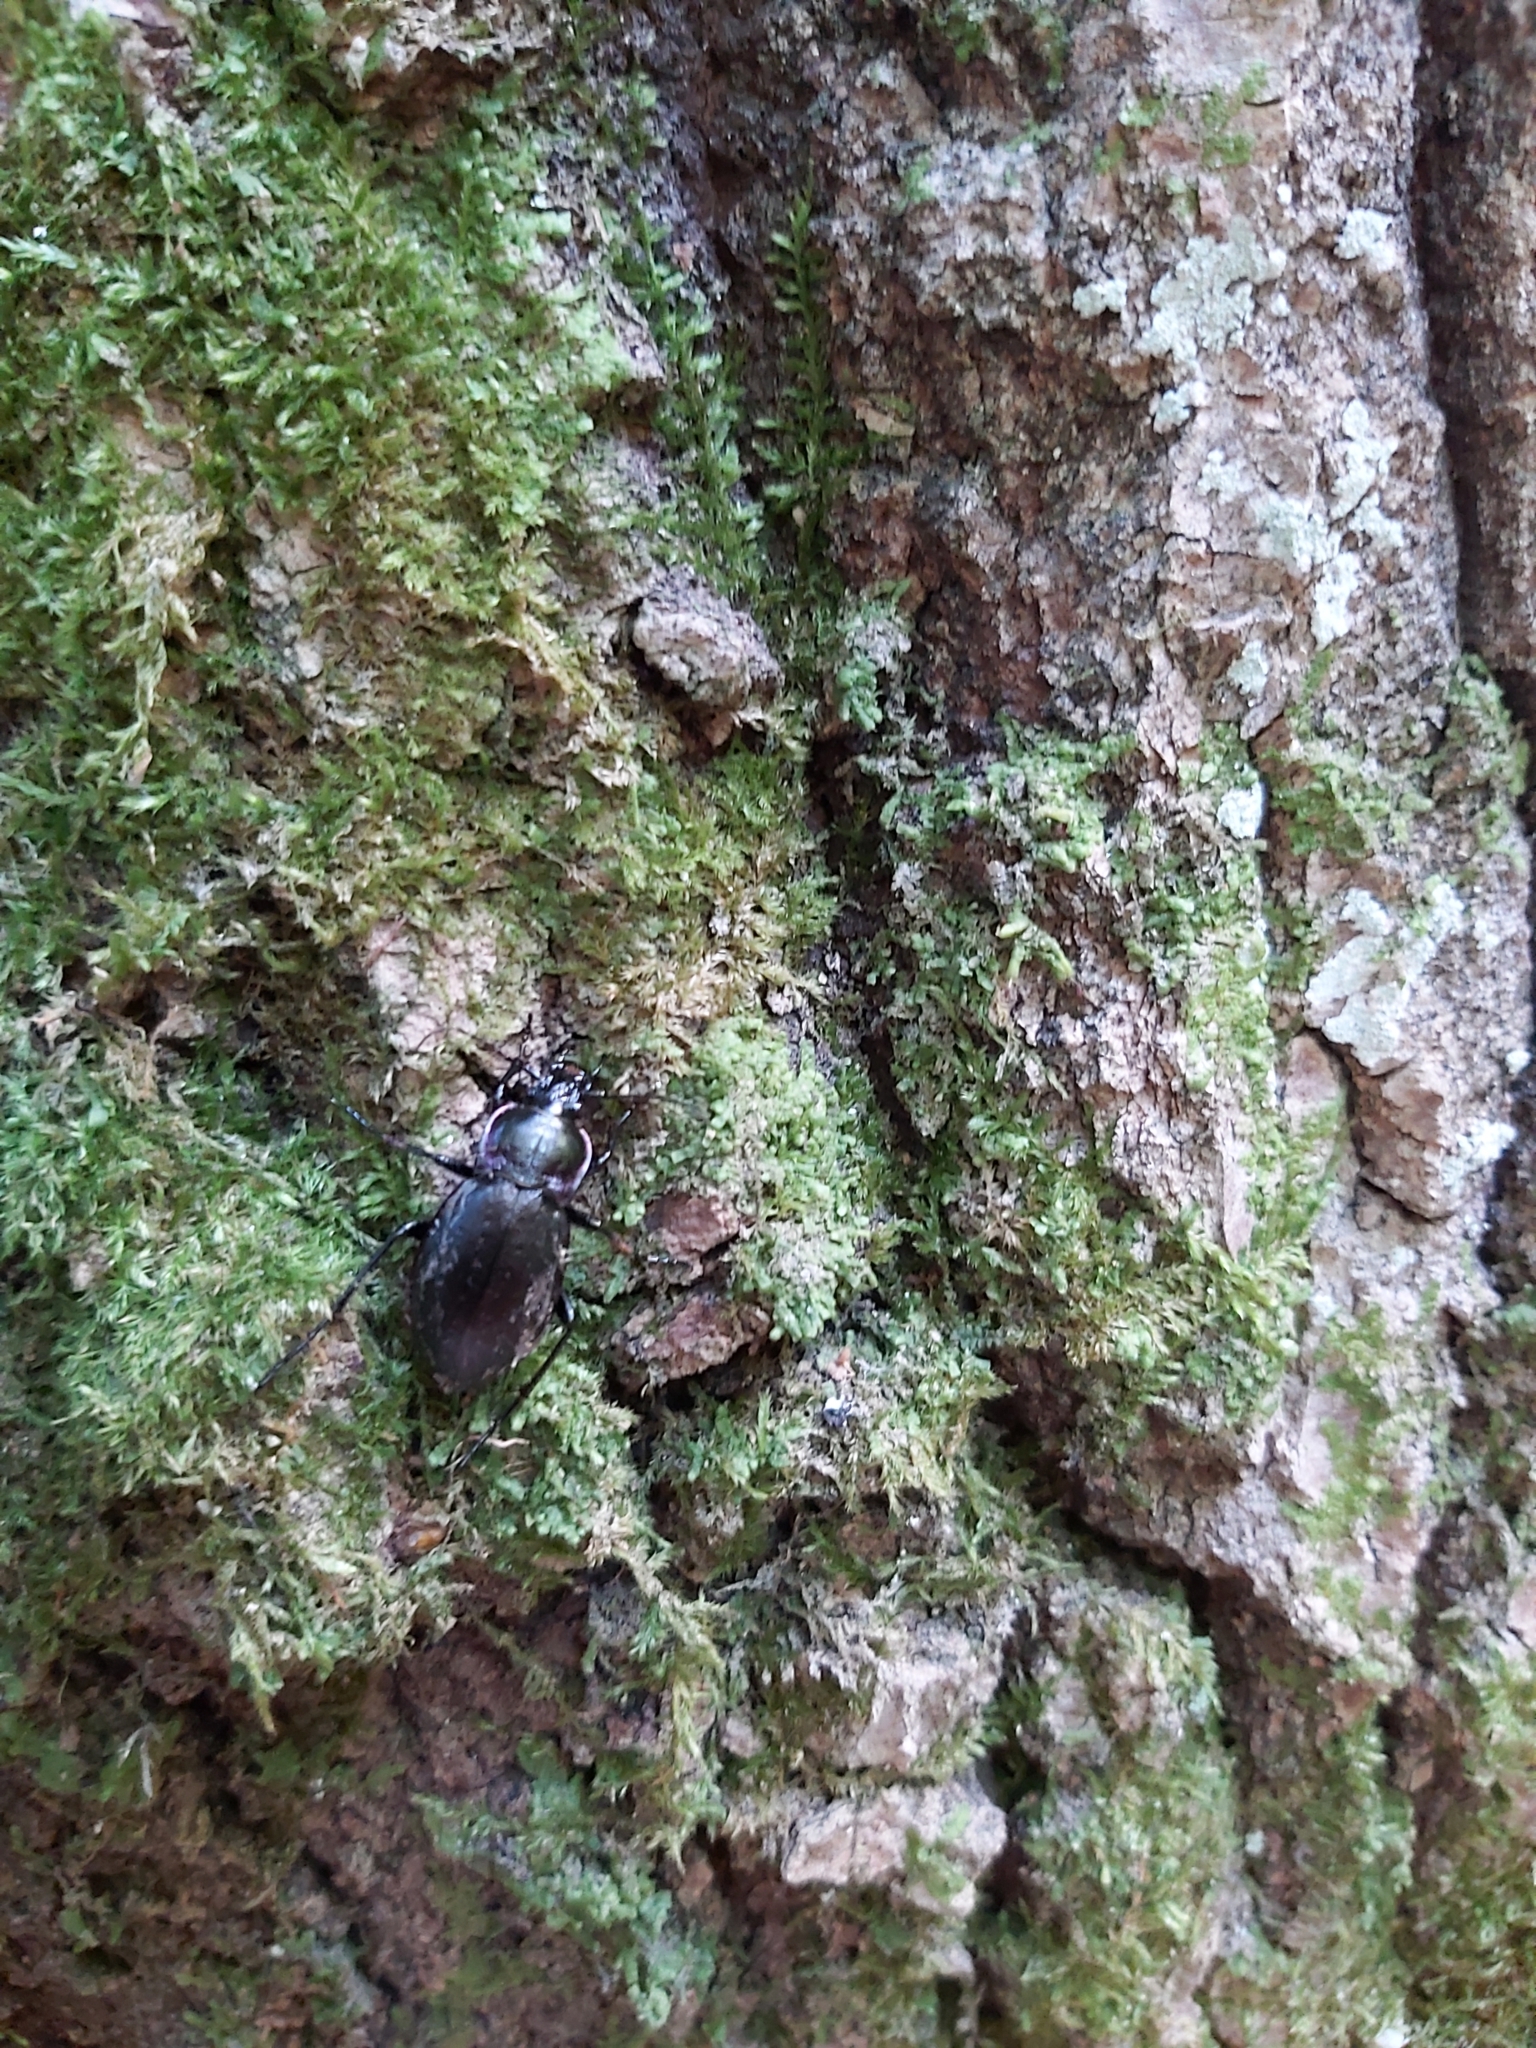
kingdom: Animalia
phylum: Arthropoda
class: Insecta
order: Coleoptera
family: Carabidae
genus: Carabus
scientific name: Carabus nemoralis
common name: European ground beetle
